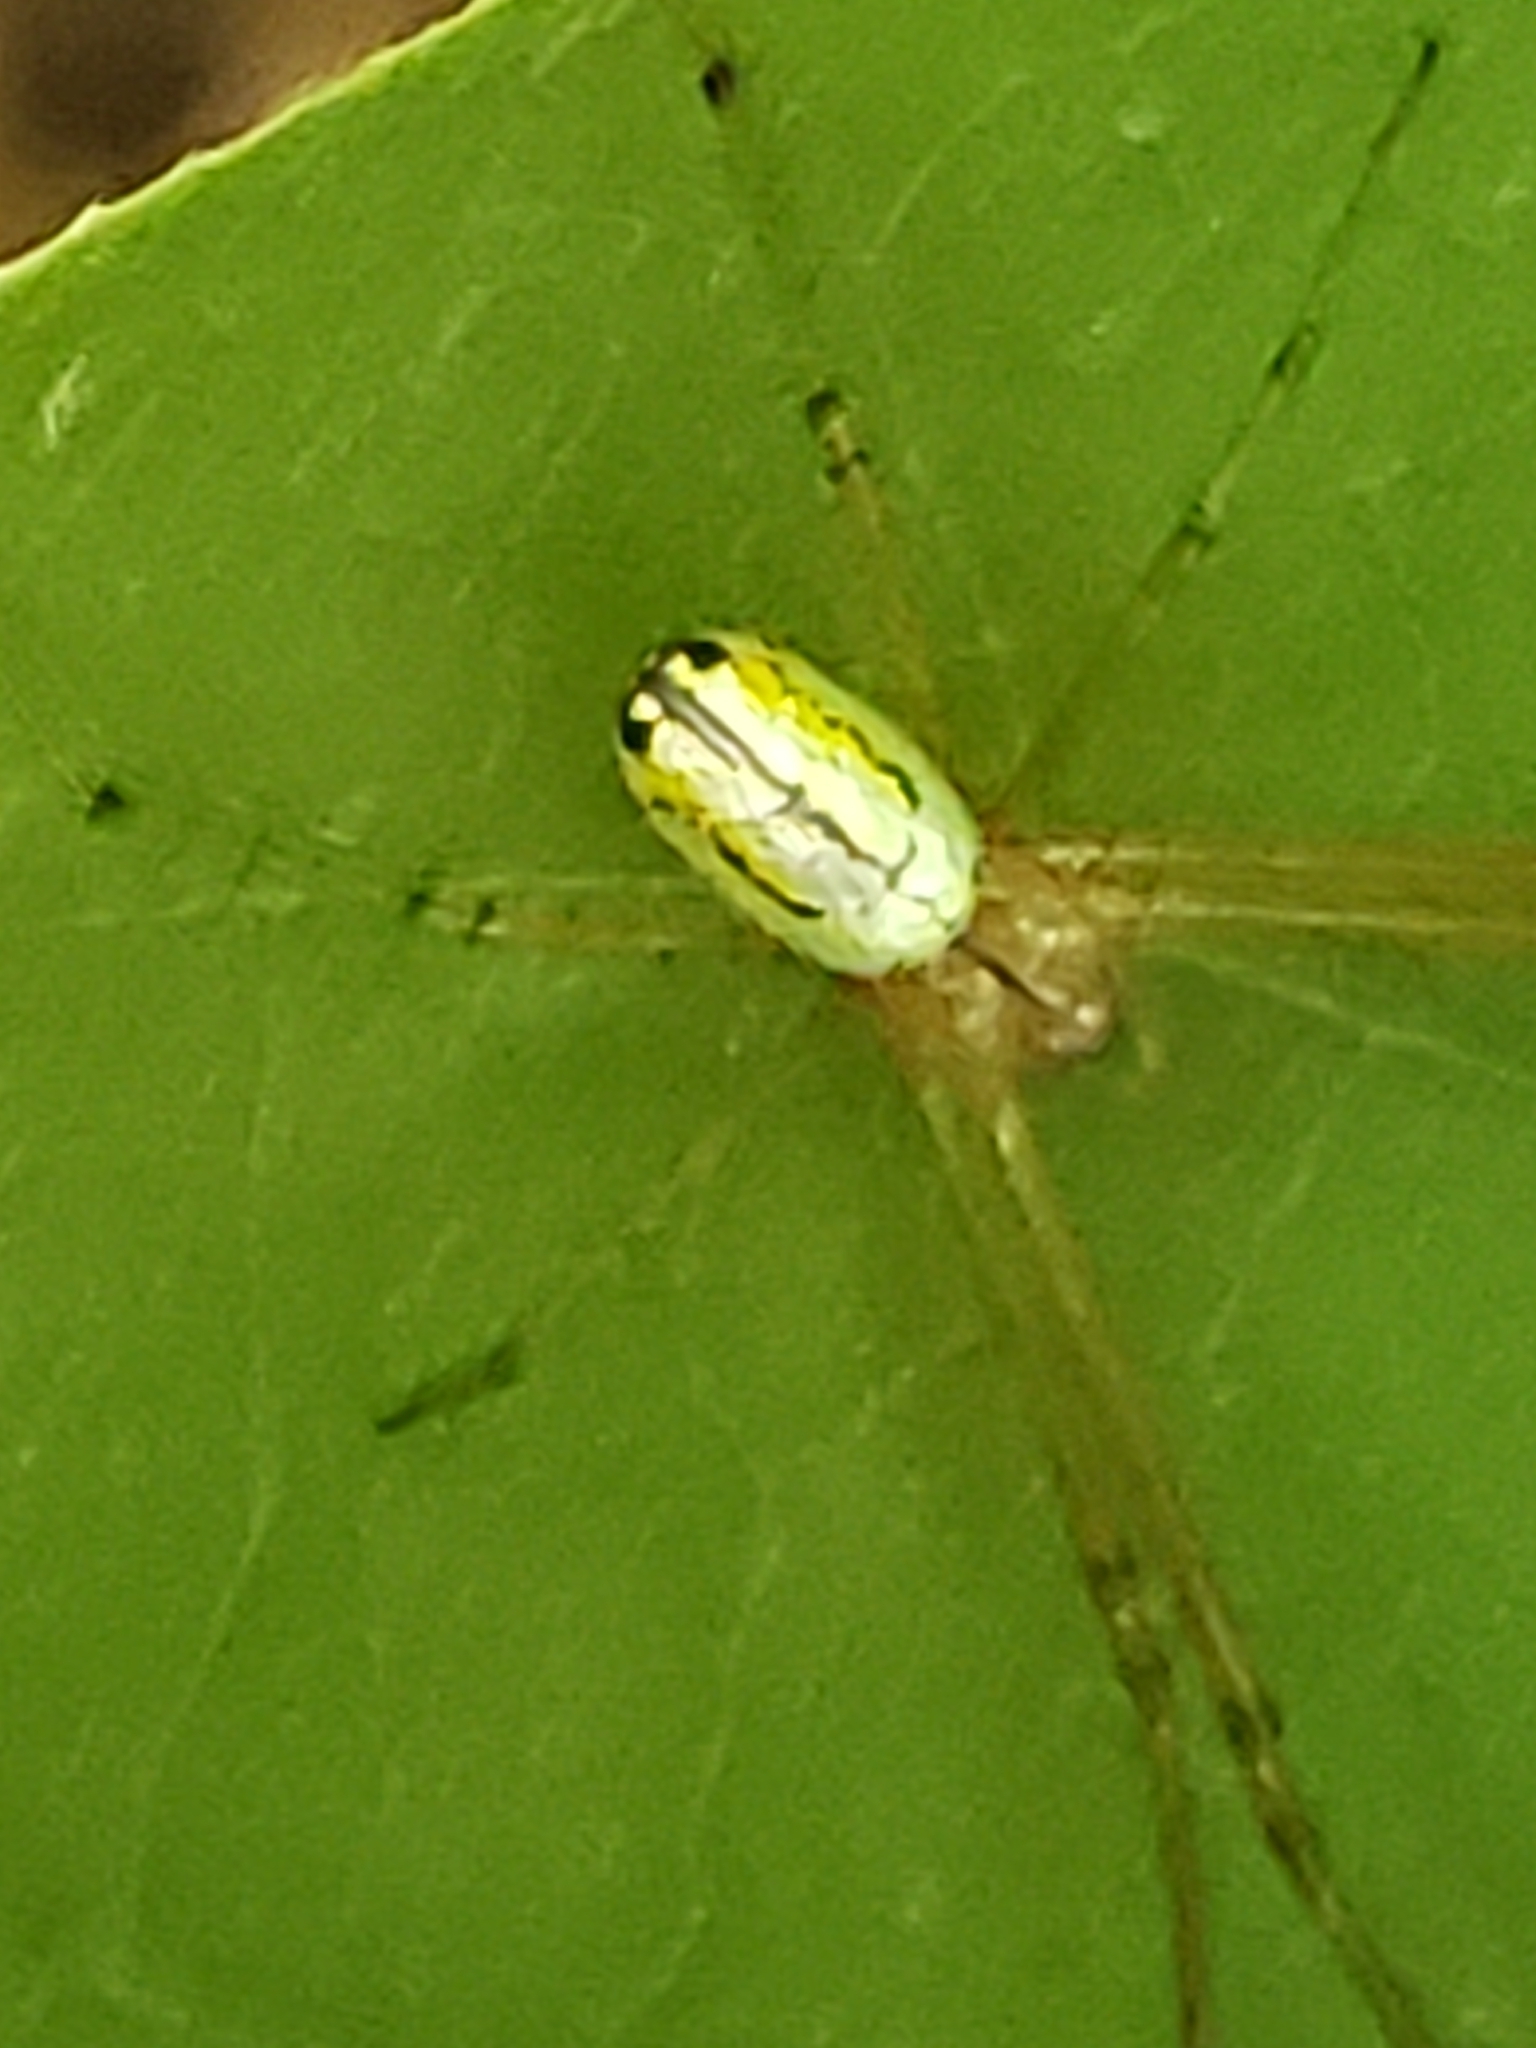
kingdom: Animalia
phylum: Arthropoda
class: Arachnida
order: Araneae
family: Tetragnathidae
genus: Leucauge
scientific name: Leucauge venusta
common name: Longjawed orb weavers
